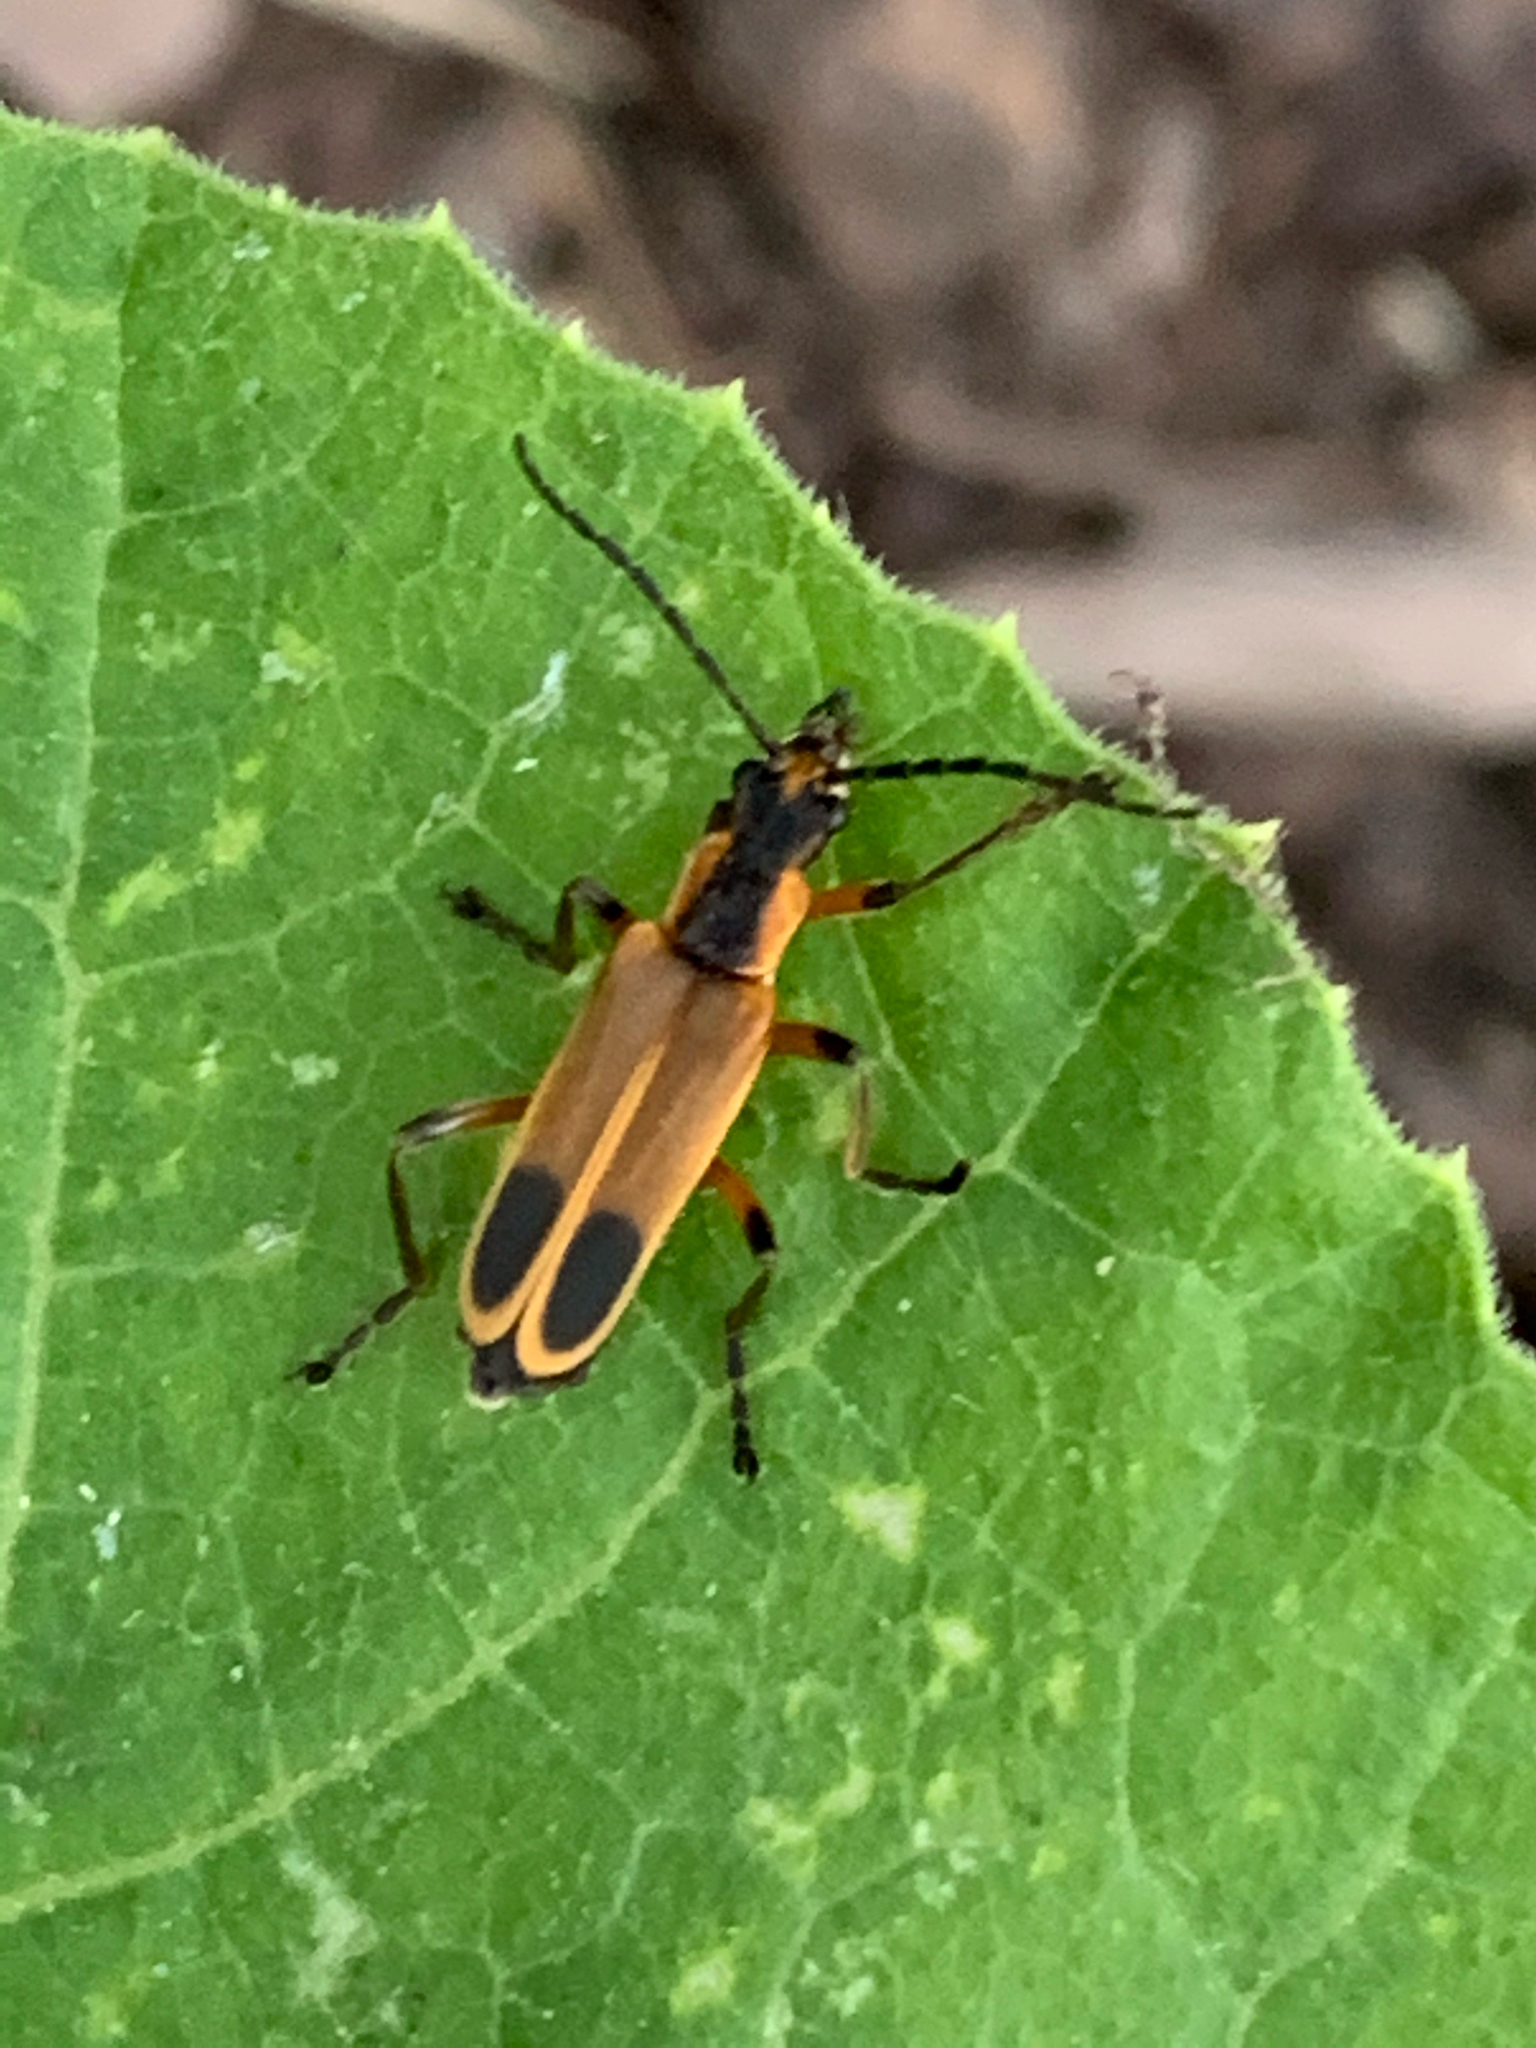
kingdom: Animalia
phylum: Arthropoda
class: Insecta
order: Coleoptera
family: Cantharidae
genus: Chauliognathus
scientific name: Chauliognathus marginatus
